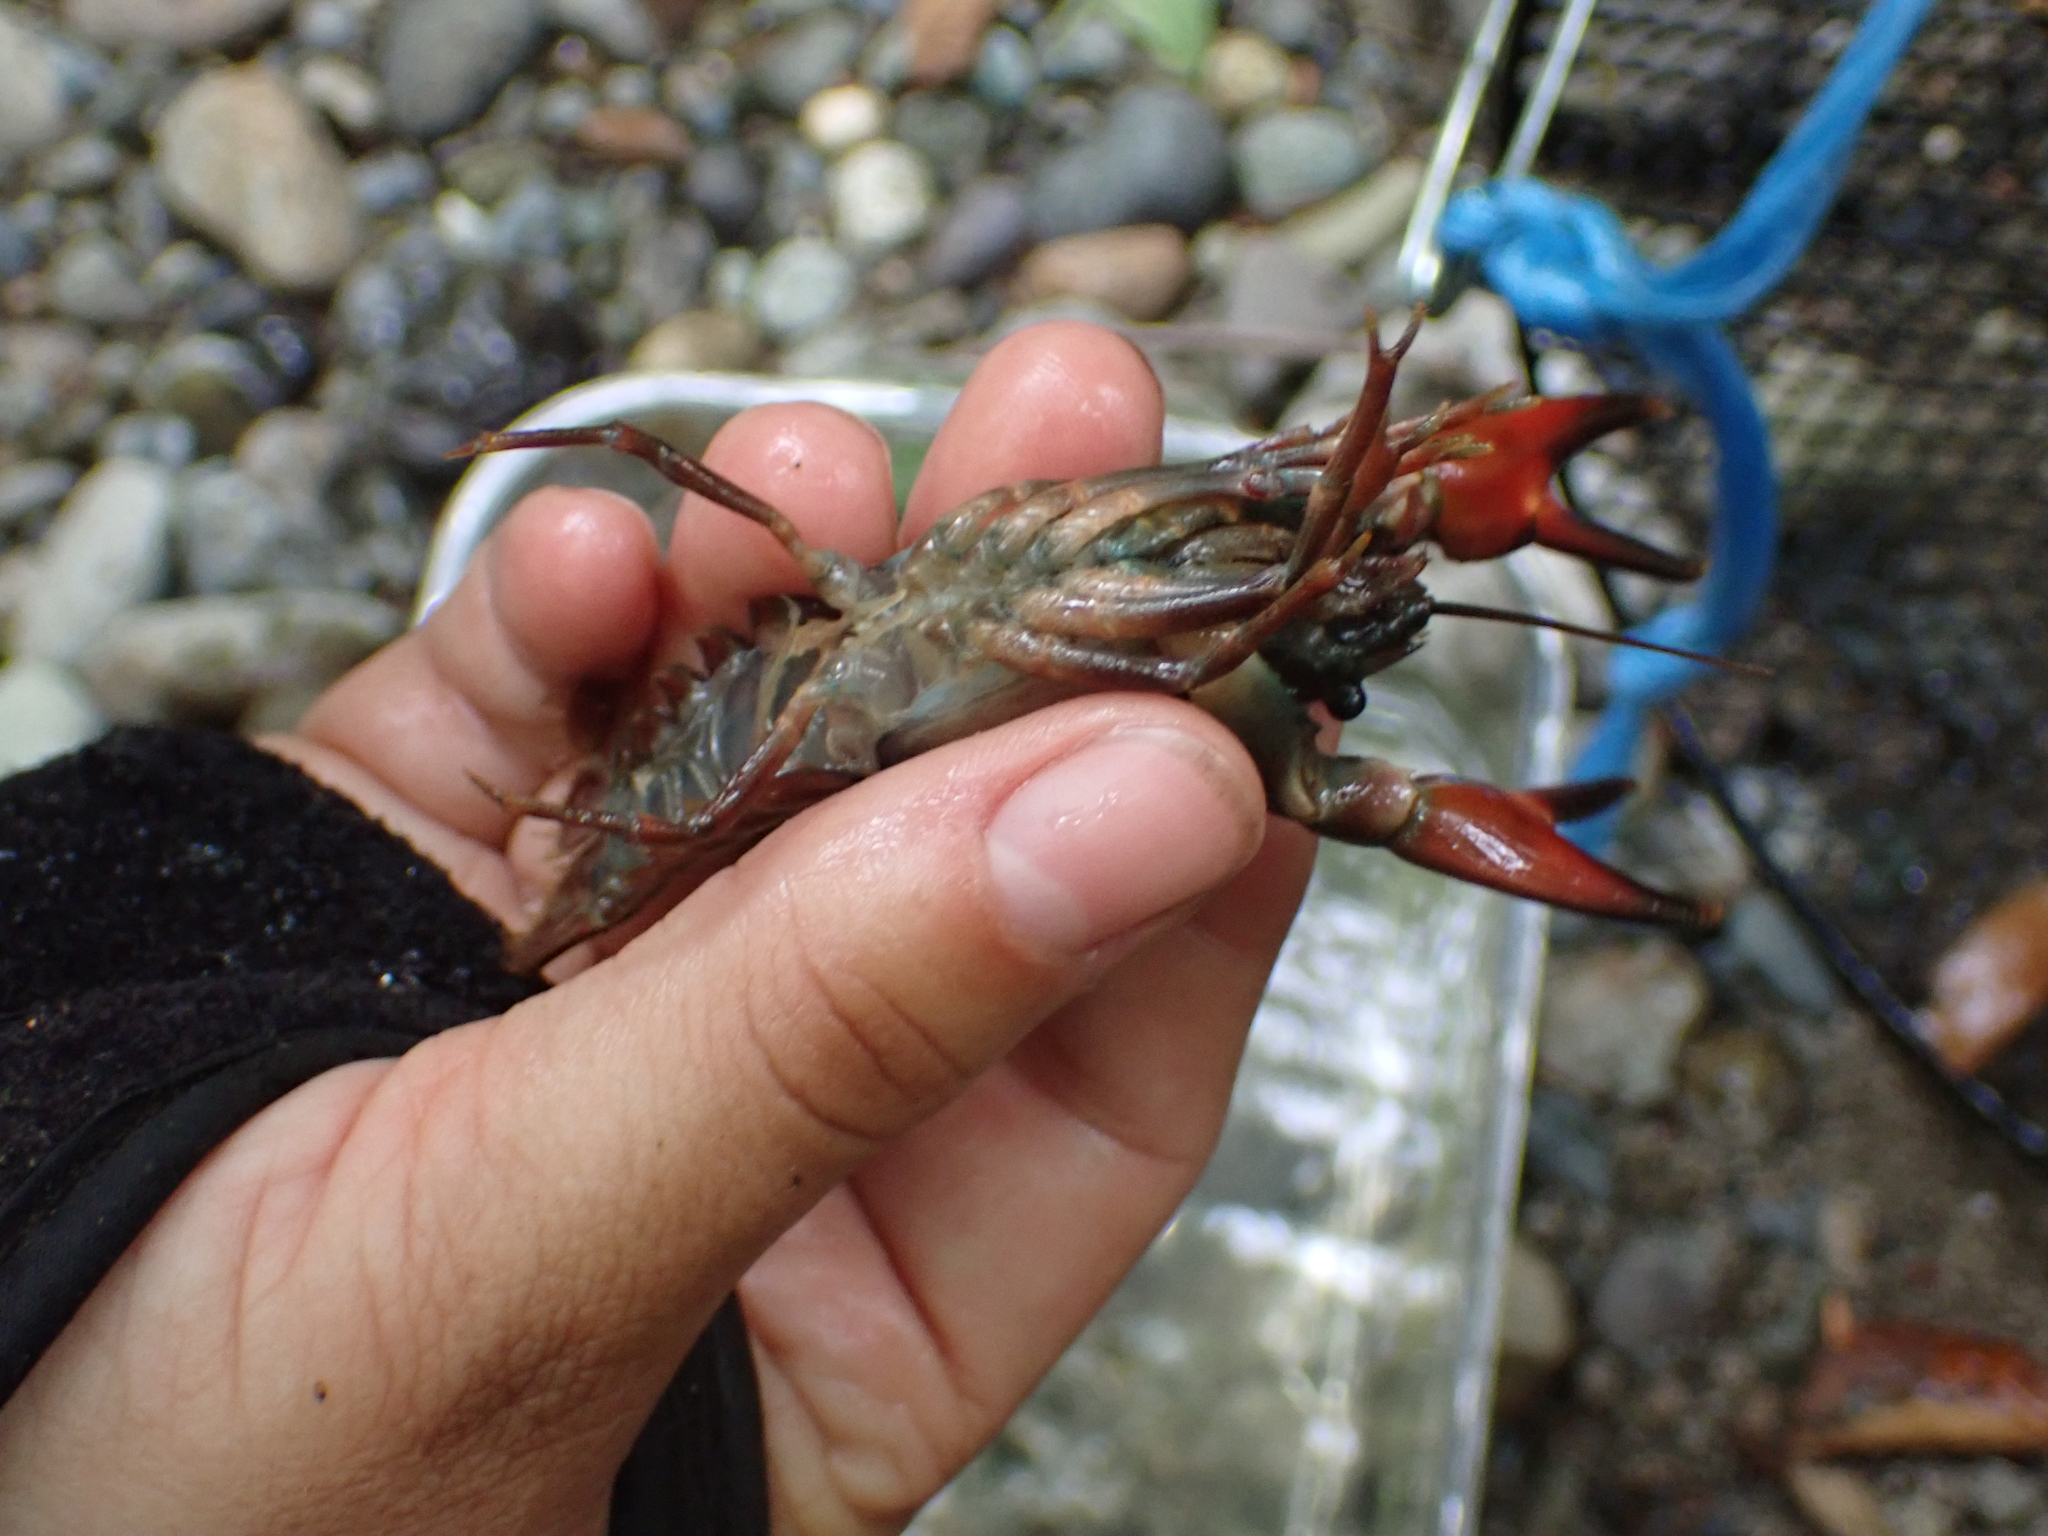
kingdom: Animalia
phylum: Arthropoda
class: Malacostraca
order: Decapoda
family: Astacidae
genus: Pacifastacus
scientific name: Pacifastacus leniusculus
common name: Signal crayfish
